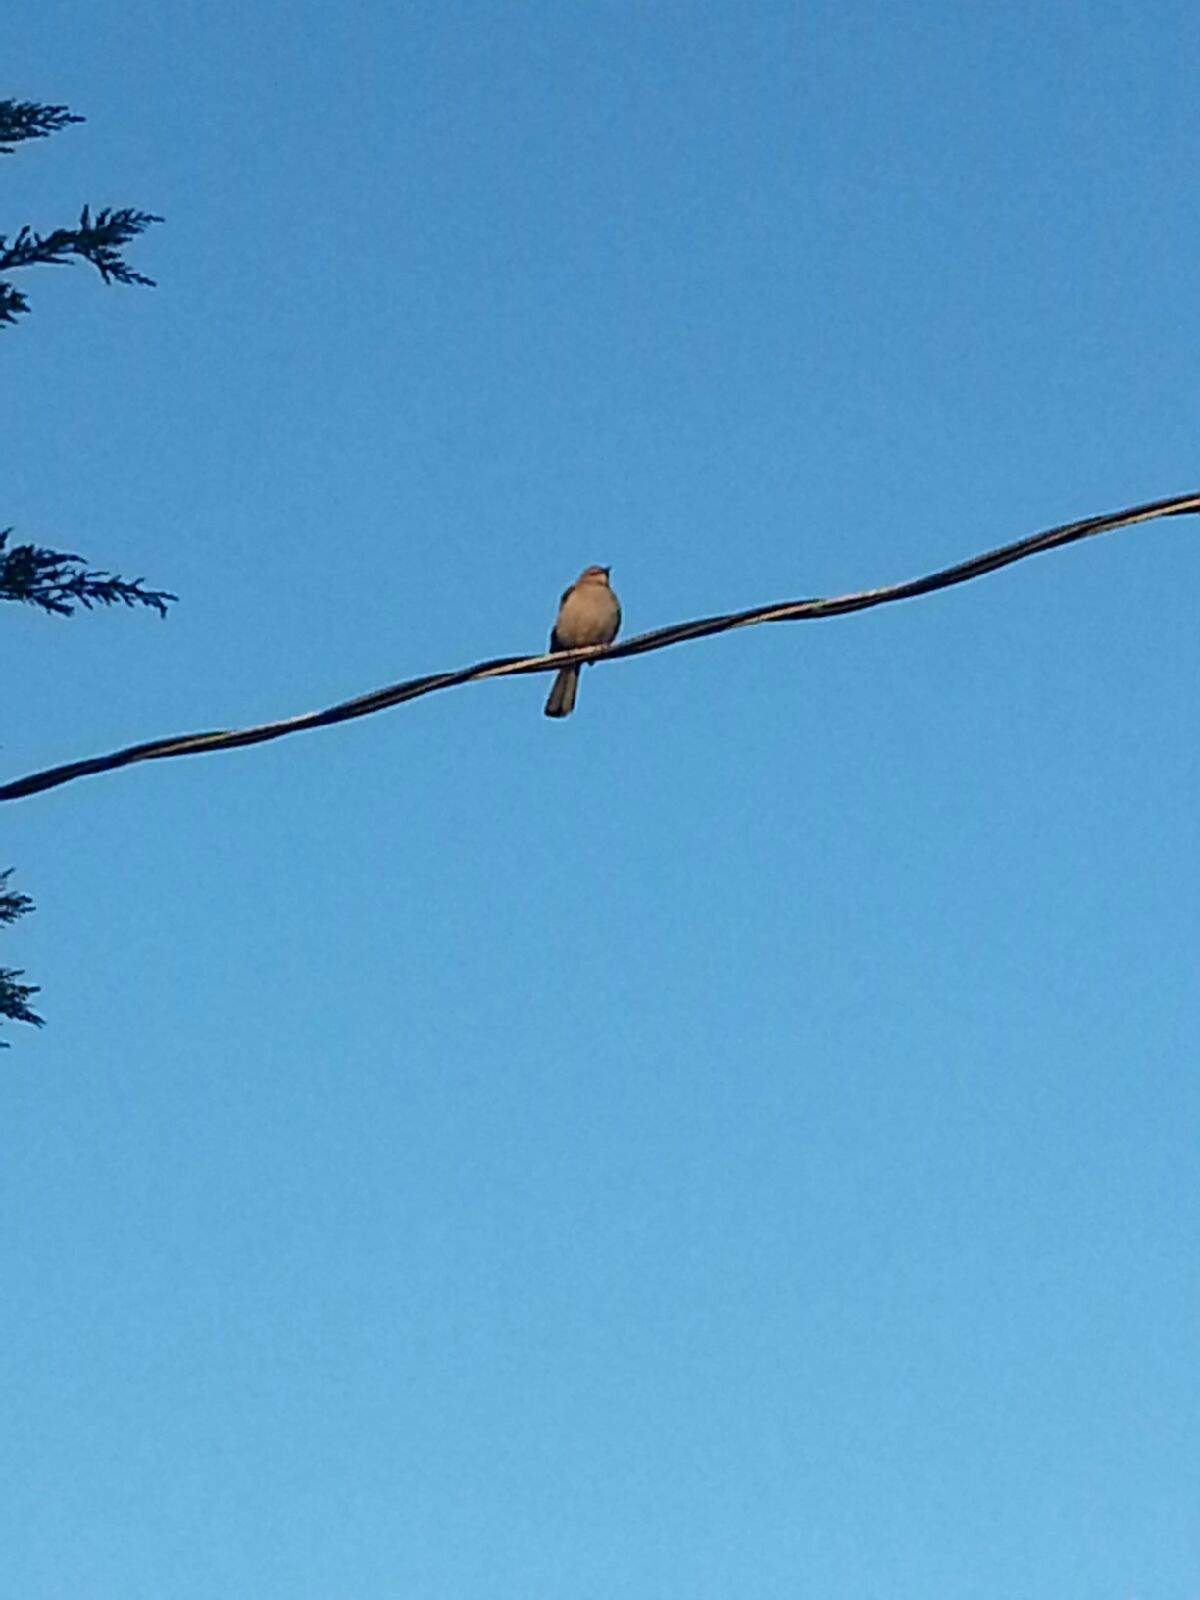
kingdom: Animalia
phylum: Chordata
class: Aves
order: Passeriformes
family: Mimidae
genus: Mimus
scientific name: Mimus polyglottos
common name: Northern mockingbird
